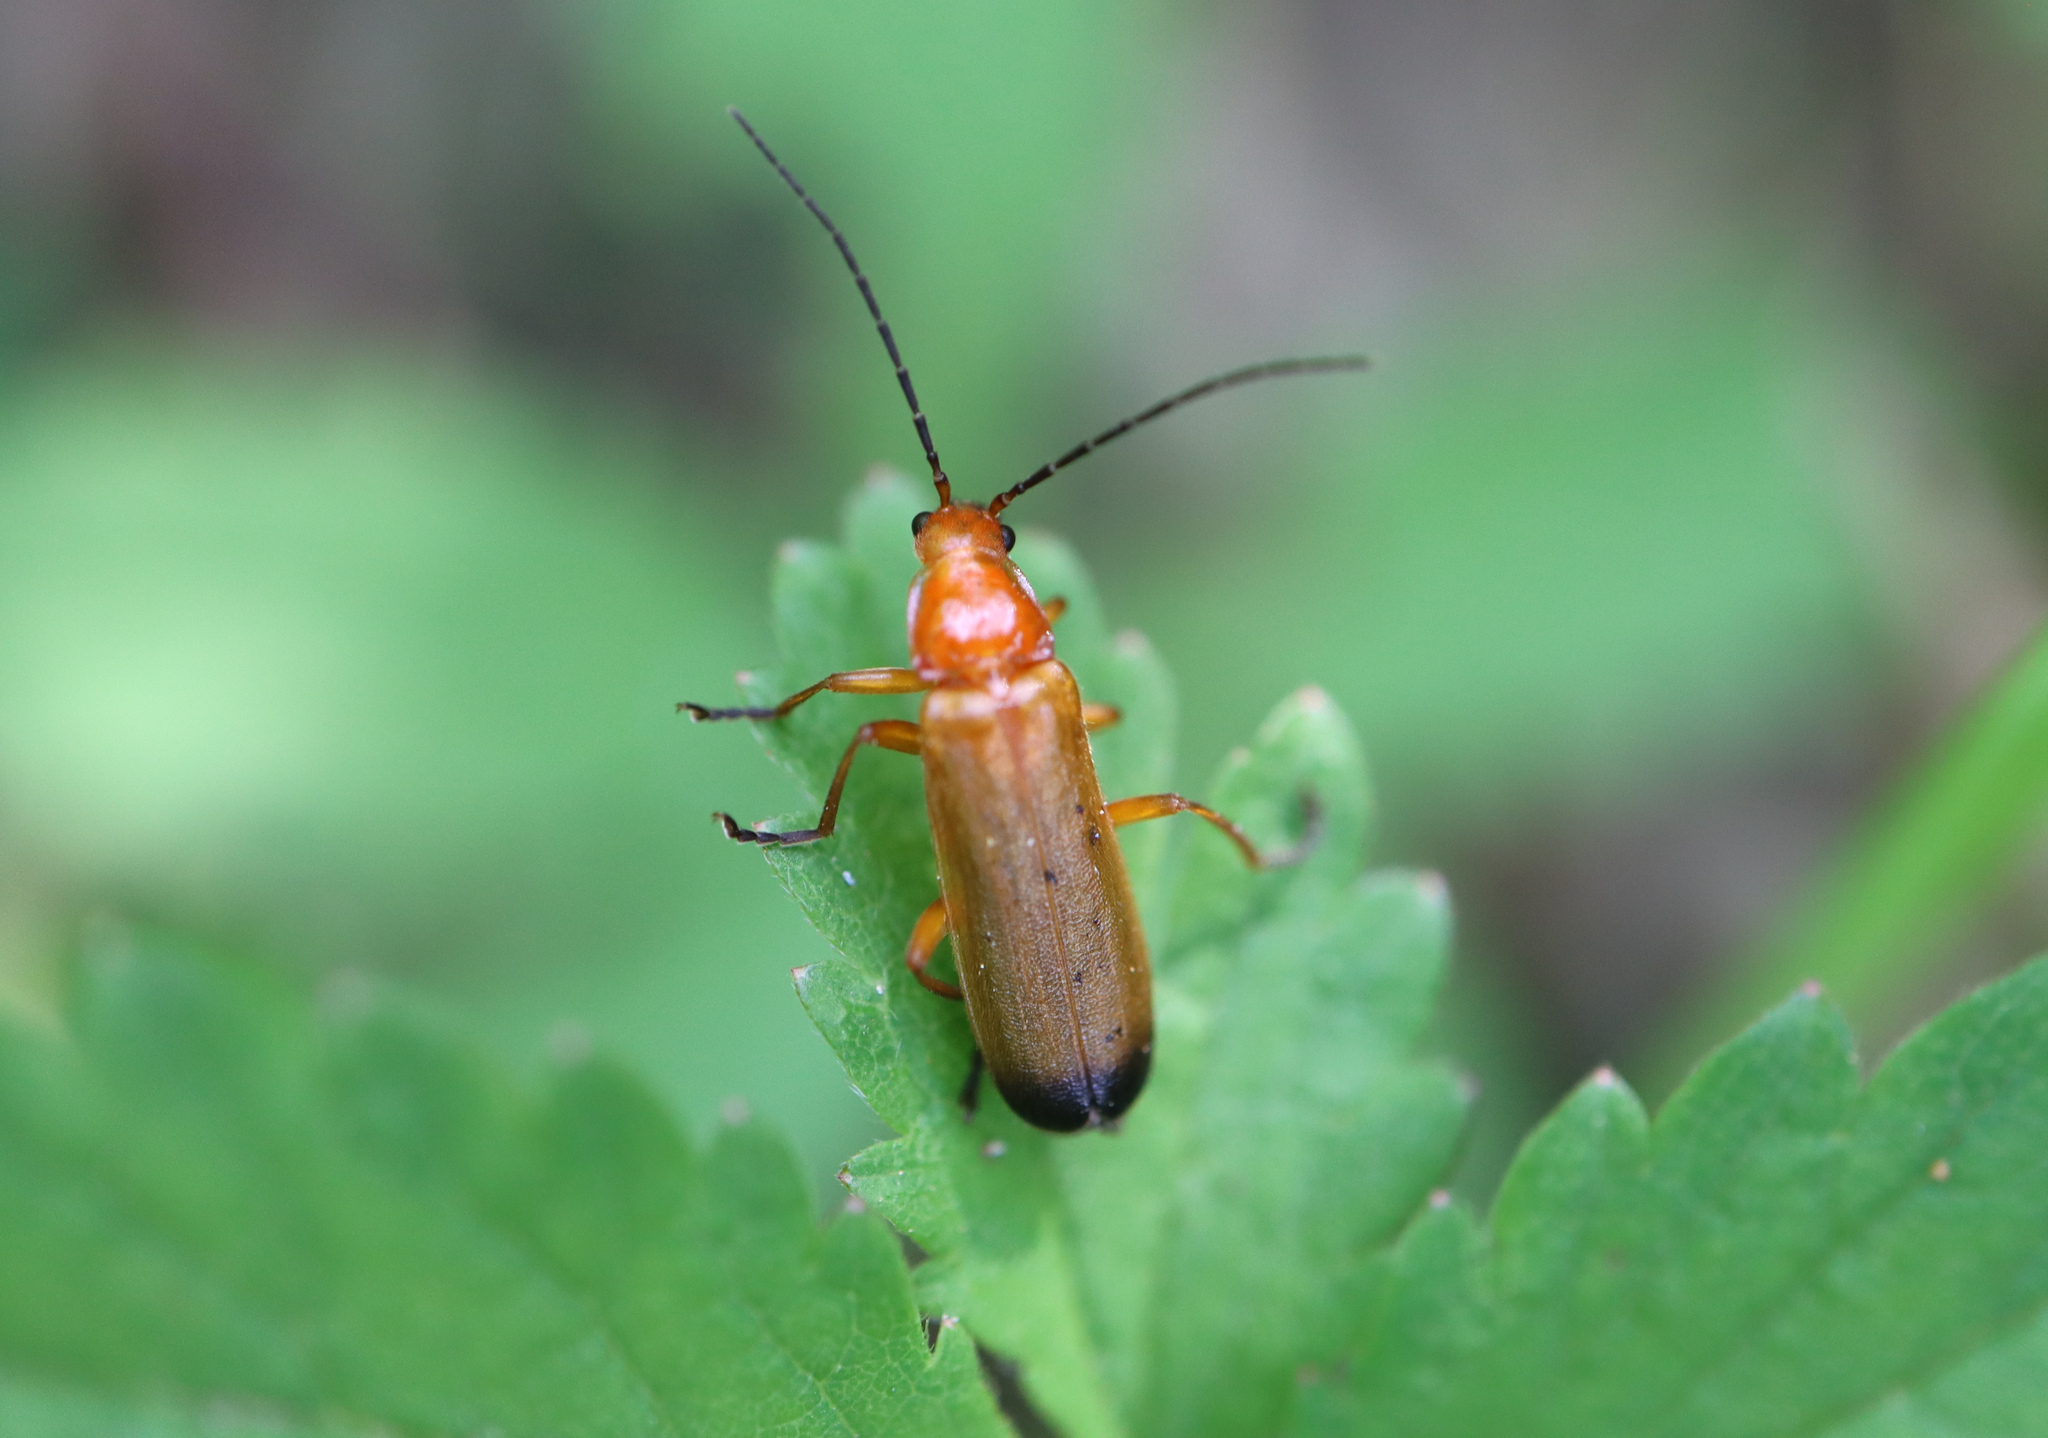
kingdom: Animalia
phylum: Arthropoda
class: Insecta
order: Coleoptera
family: Cantharidae
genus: Rhagonycha
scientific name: Rhagonycha fulva
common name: Common red soldier beetle
